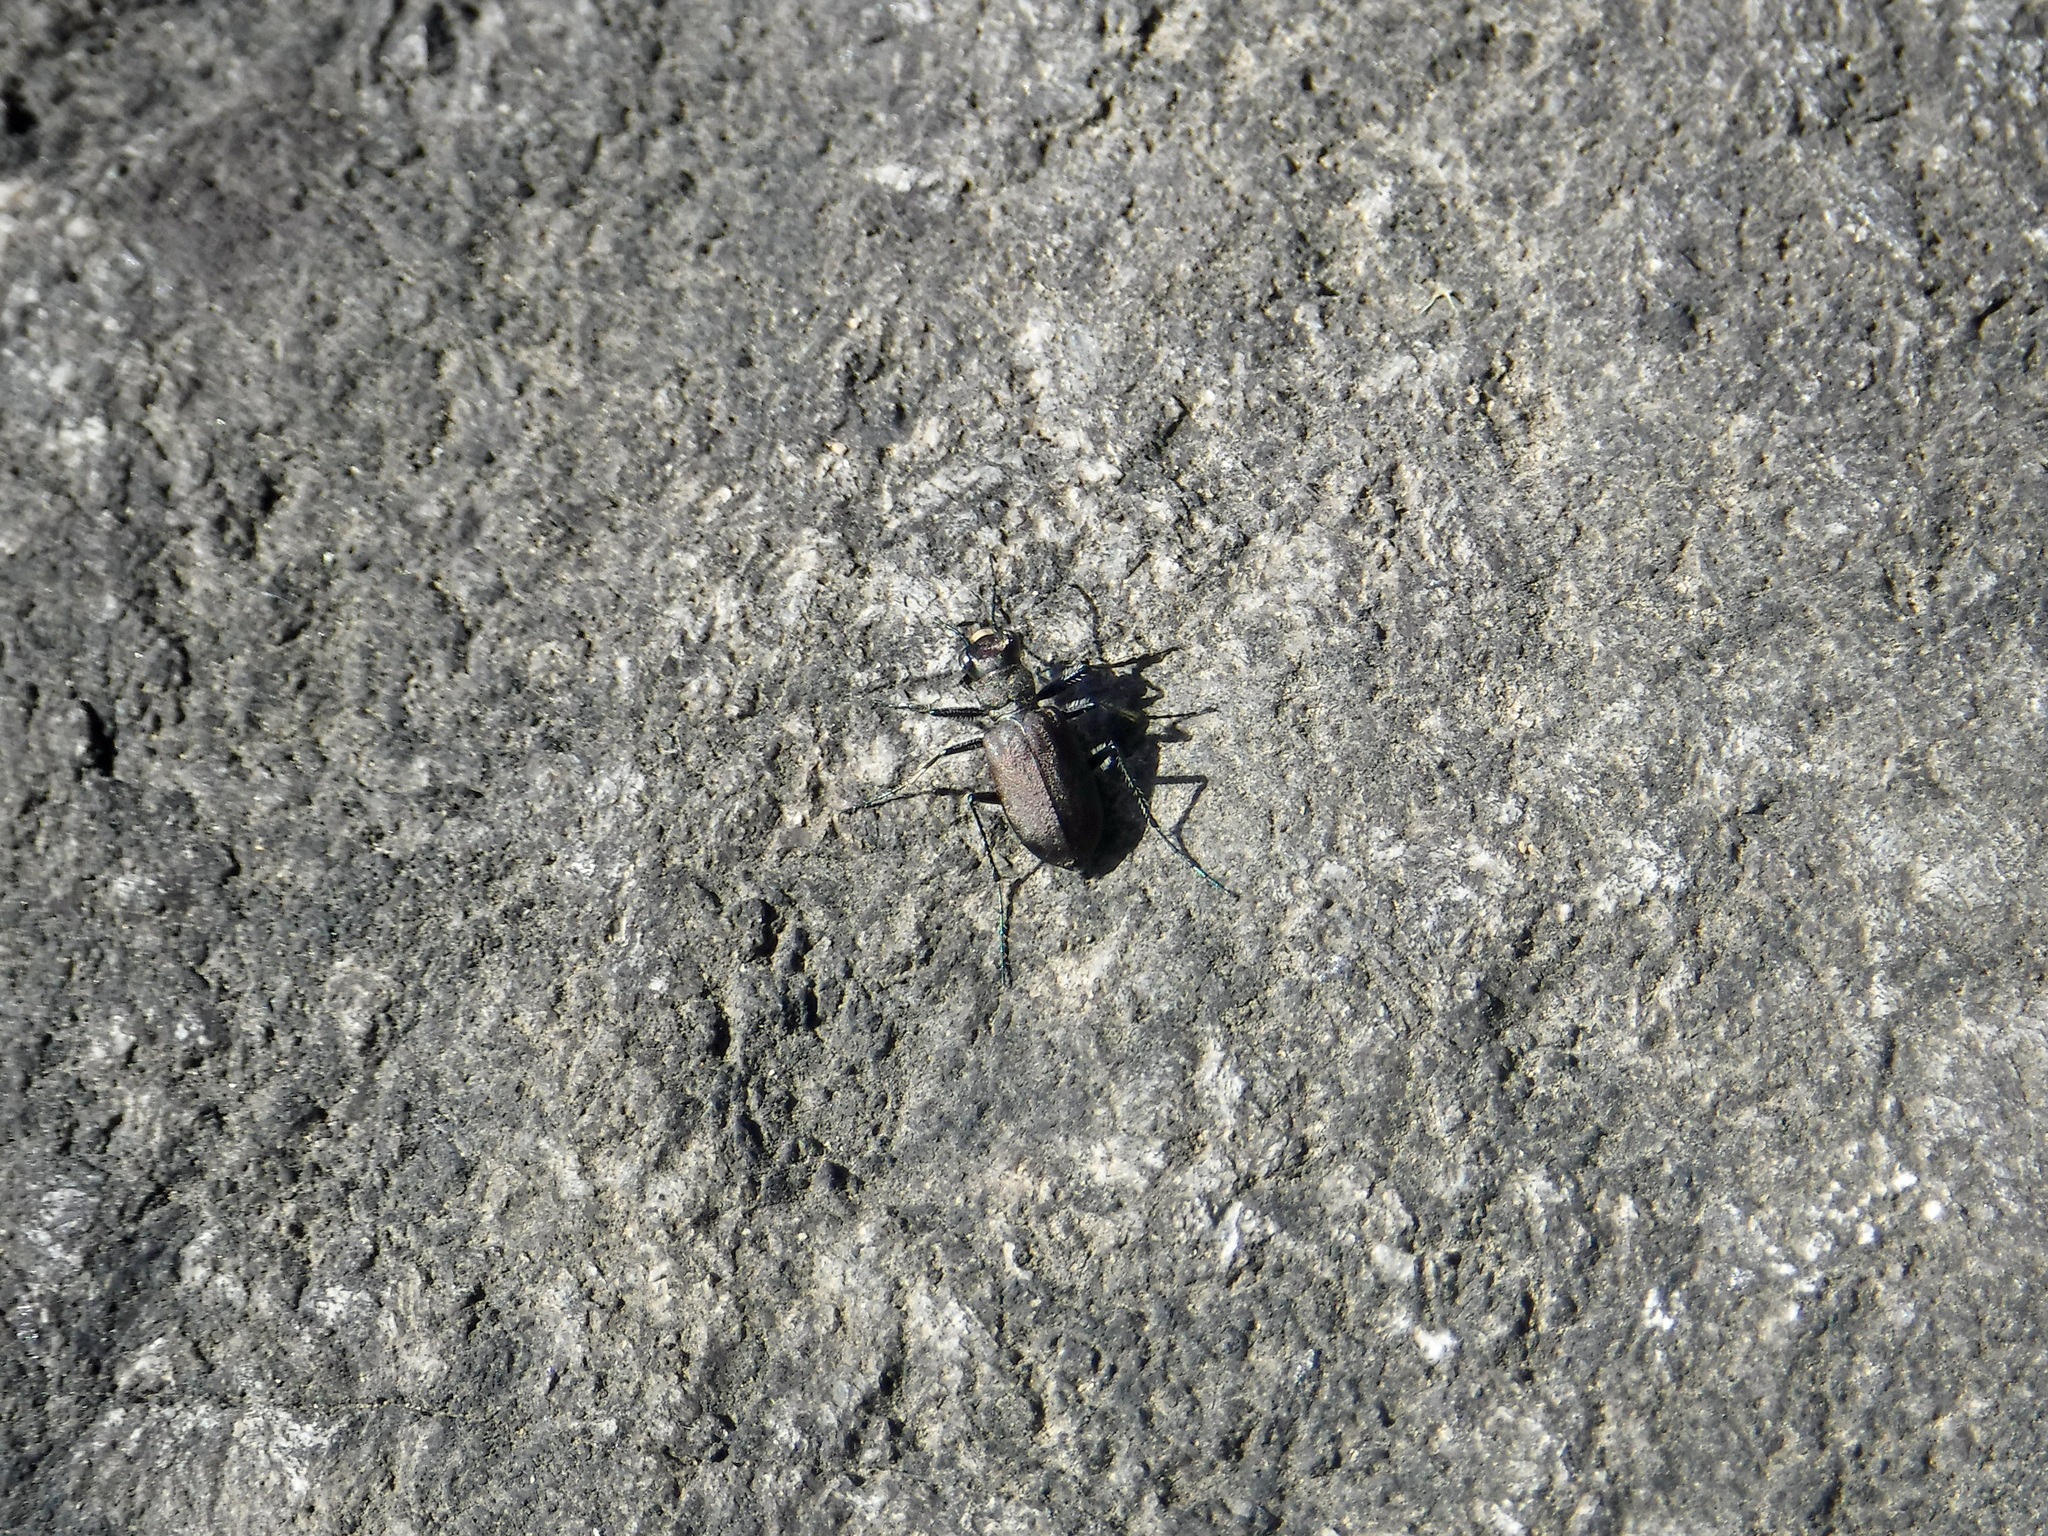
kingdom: Animalia
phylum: Arthropoda
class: Insecta
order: Coleoptera
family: Carabidae
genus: Cicindela
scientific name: Cicindela longilabris
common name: Boreal long-lipped tiger beetle
